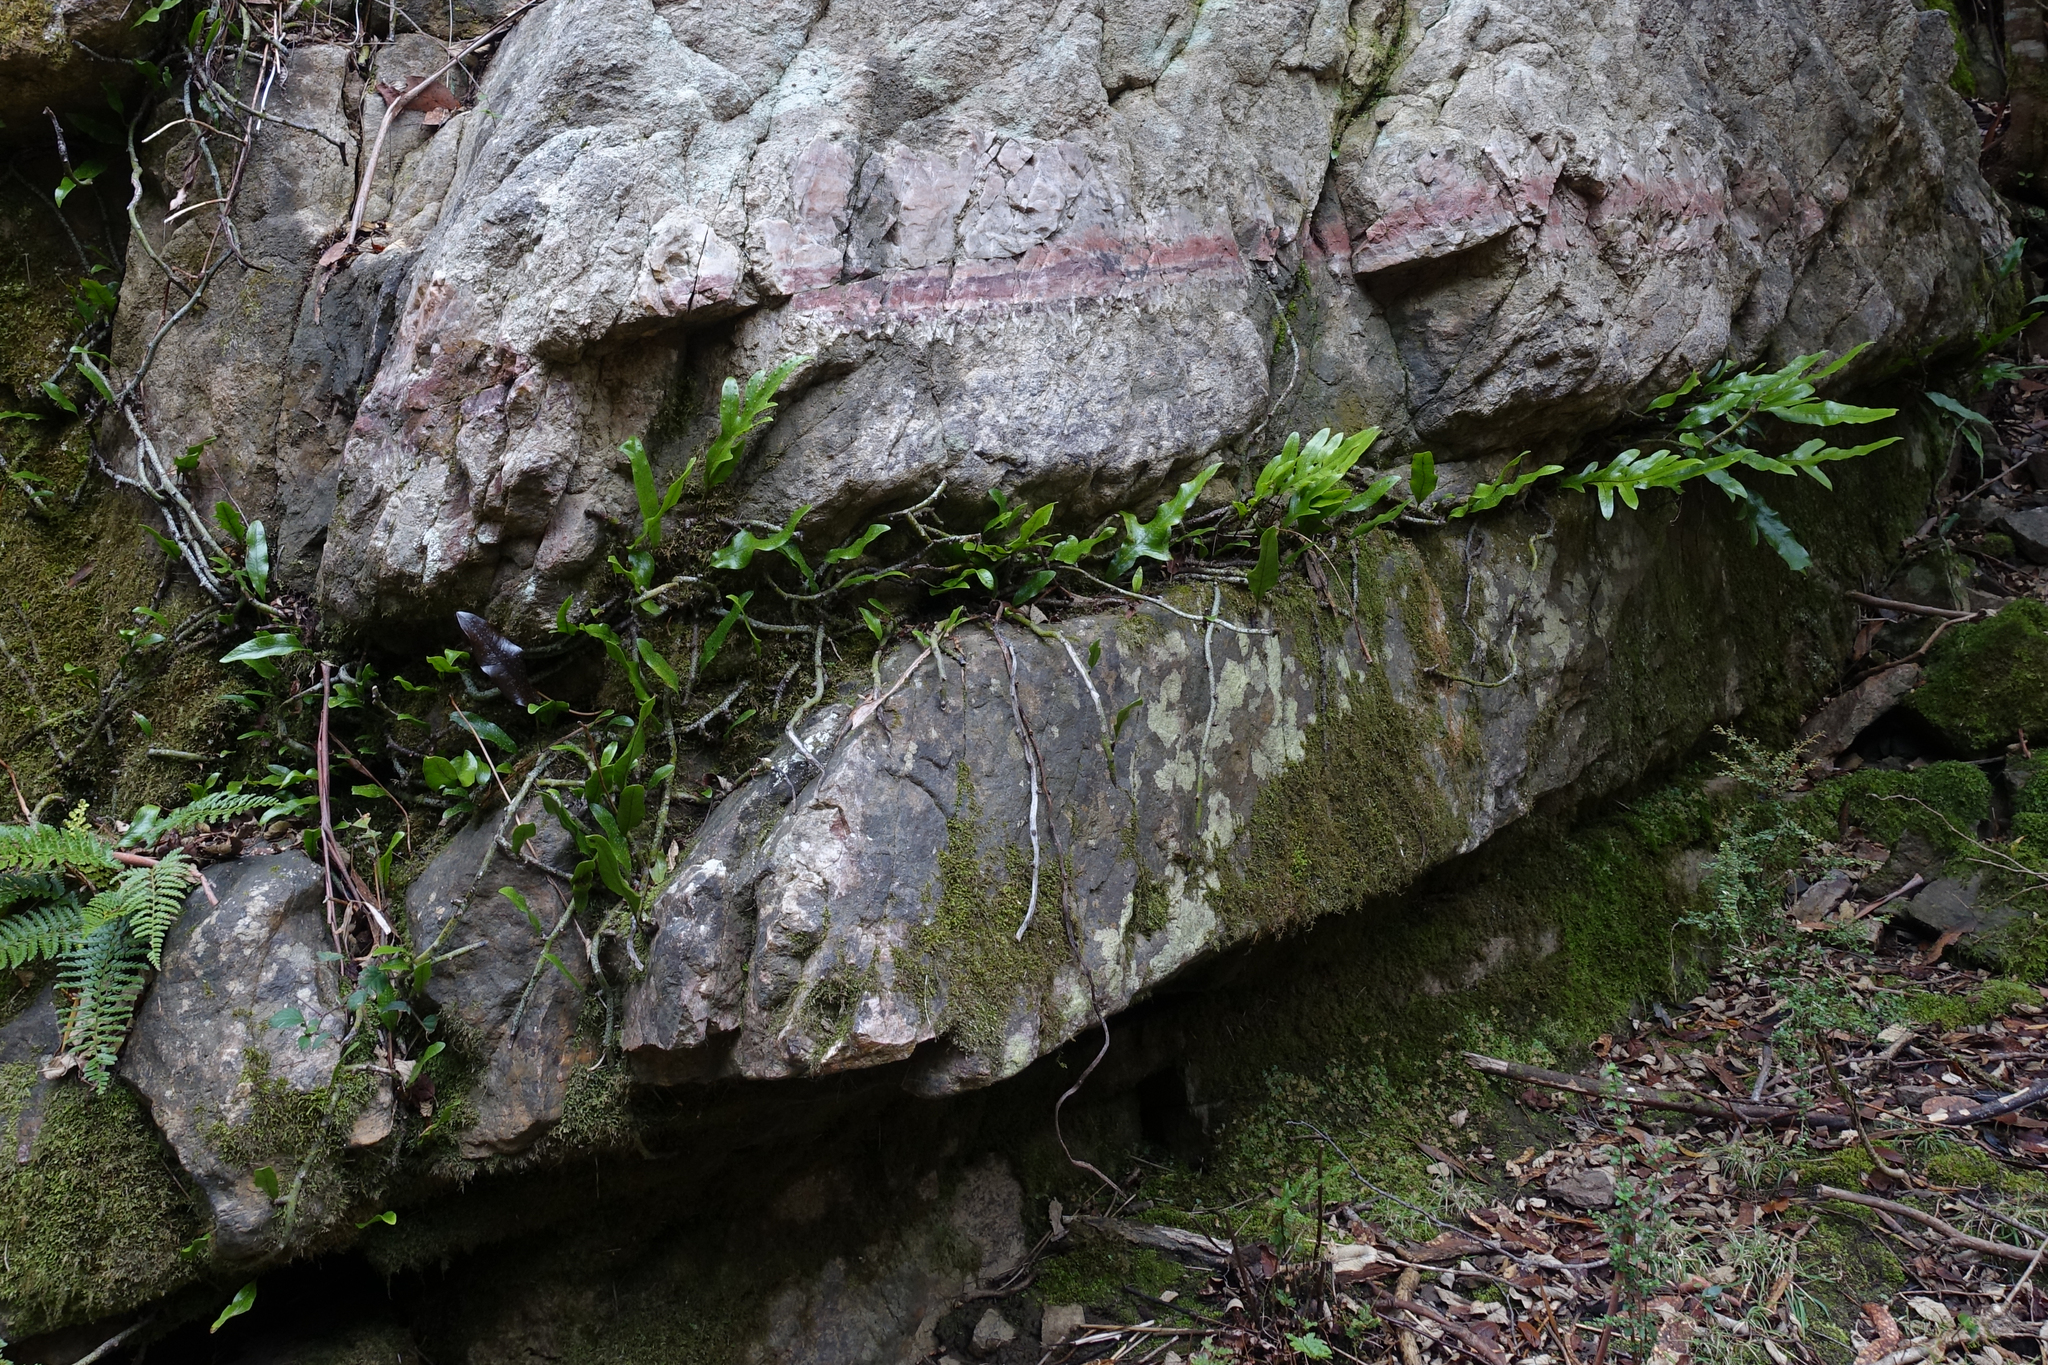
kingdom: Plantae
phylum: Tracheophyta
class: Polypodiopsida
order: Polypodiales
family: Polypodiaceae
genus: Lecanopteris
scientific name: Lecanopteris pustulata
